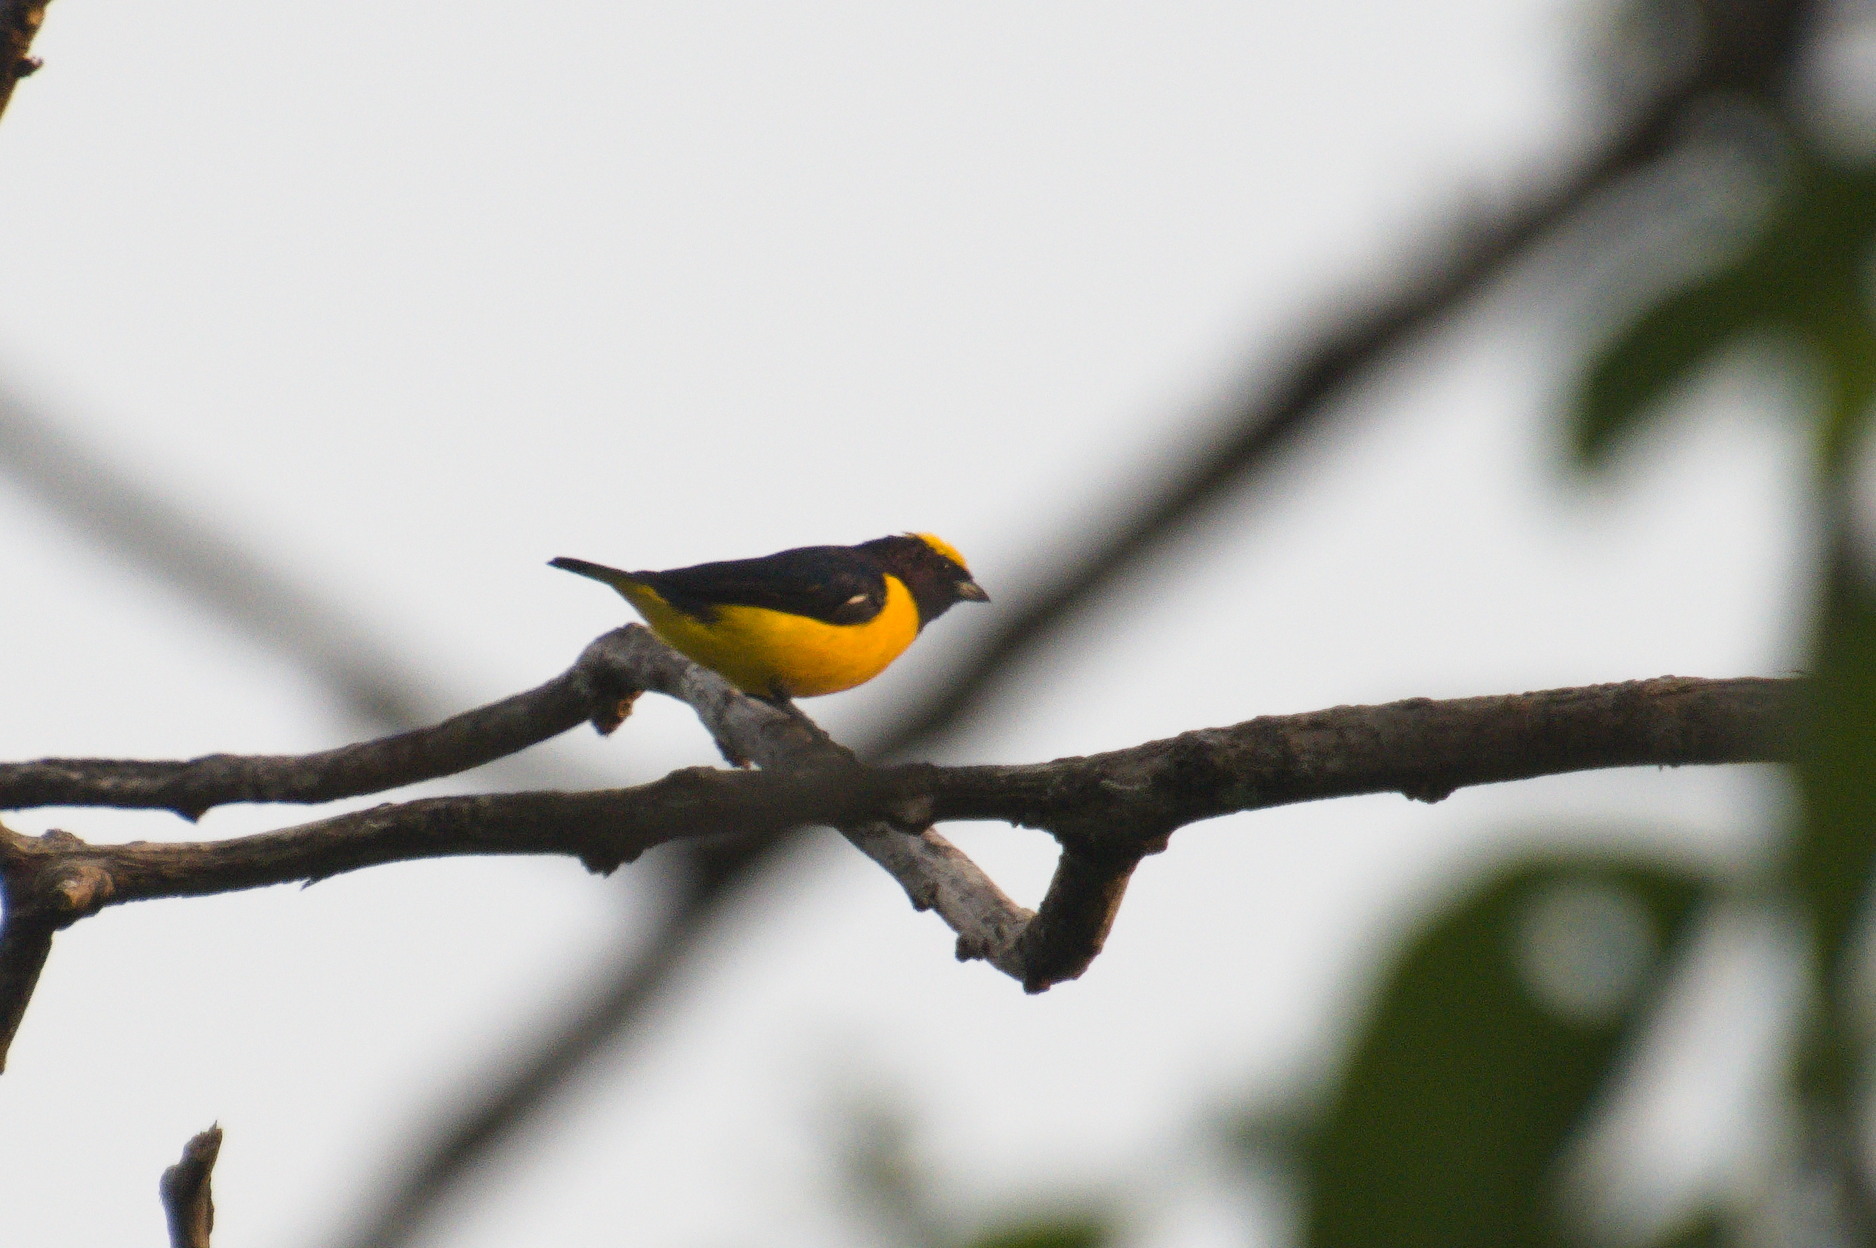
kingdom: Animalia
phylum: Chordata
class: Aves
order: Passeriformes
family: Fringillidae
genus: Euphonia
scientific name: Euphonia trinitatis
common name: Trinidad euphonia
